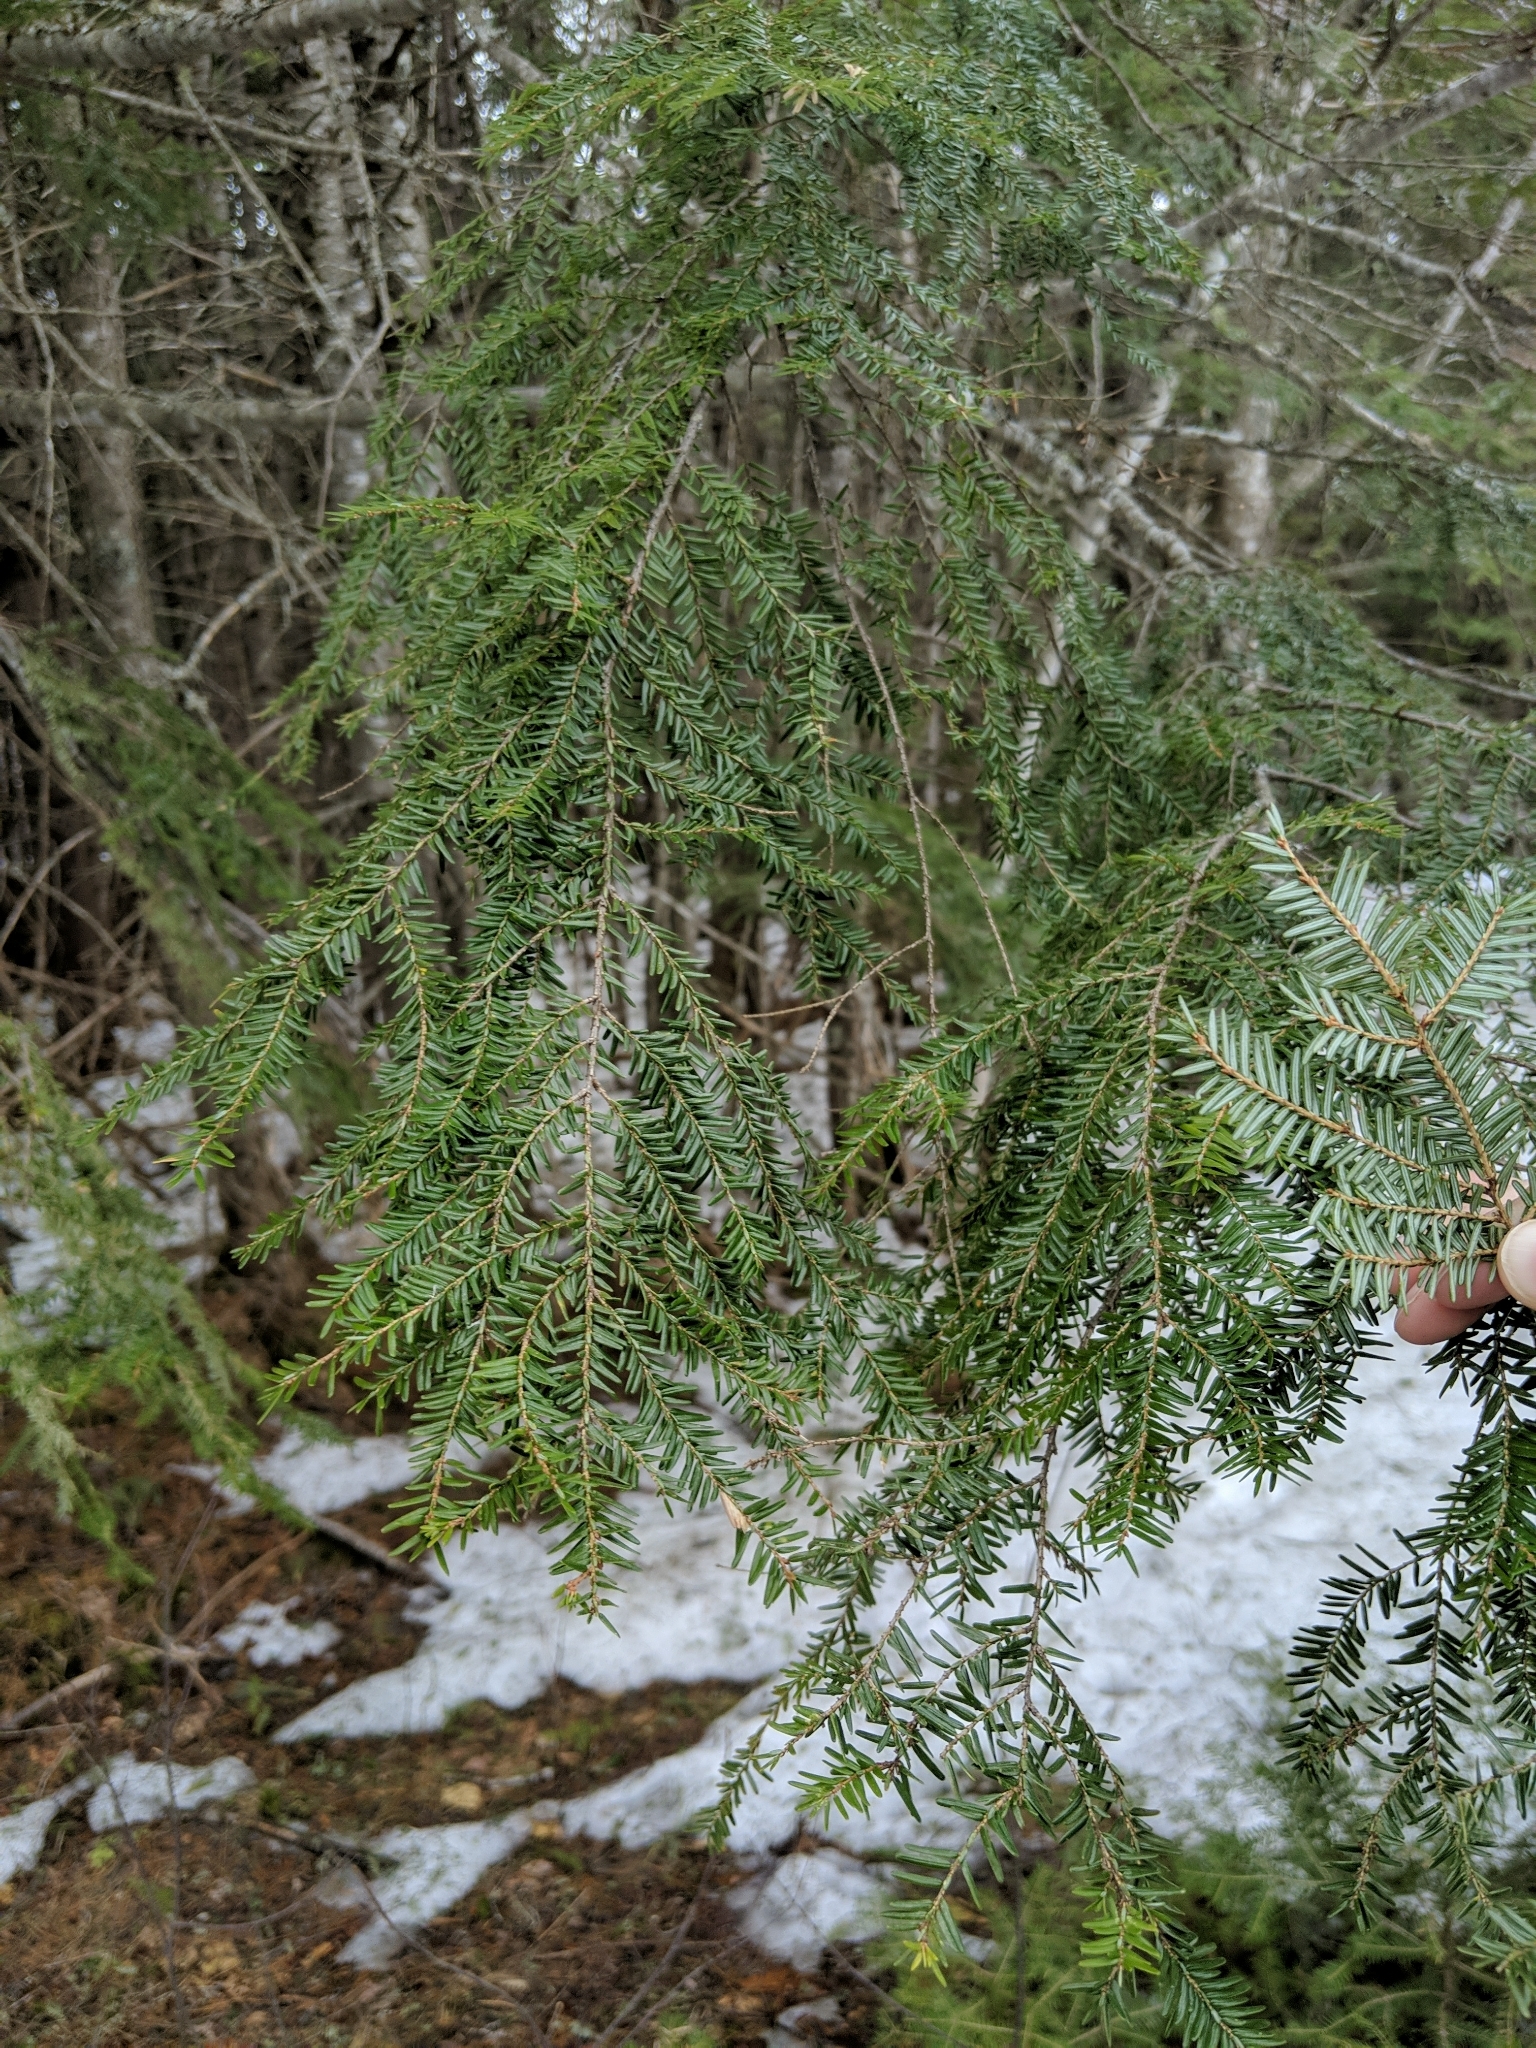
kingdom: Plantae
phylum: Tracheophyta
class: Pinopsida
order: Pinales
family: Pinaceae
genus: Tsuga
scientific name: Tsuga canadensis
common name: Eastern hemlock
